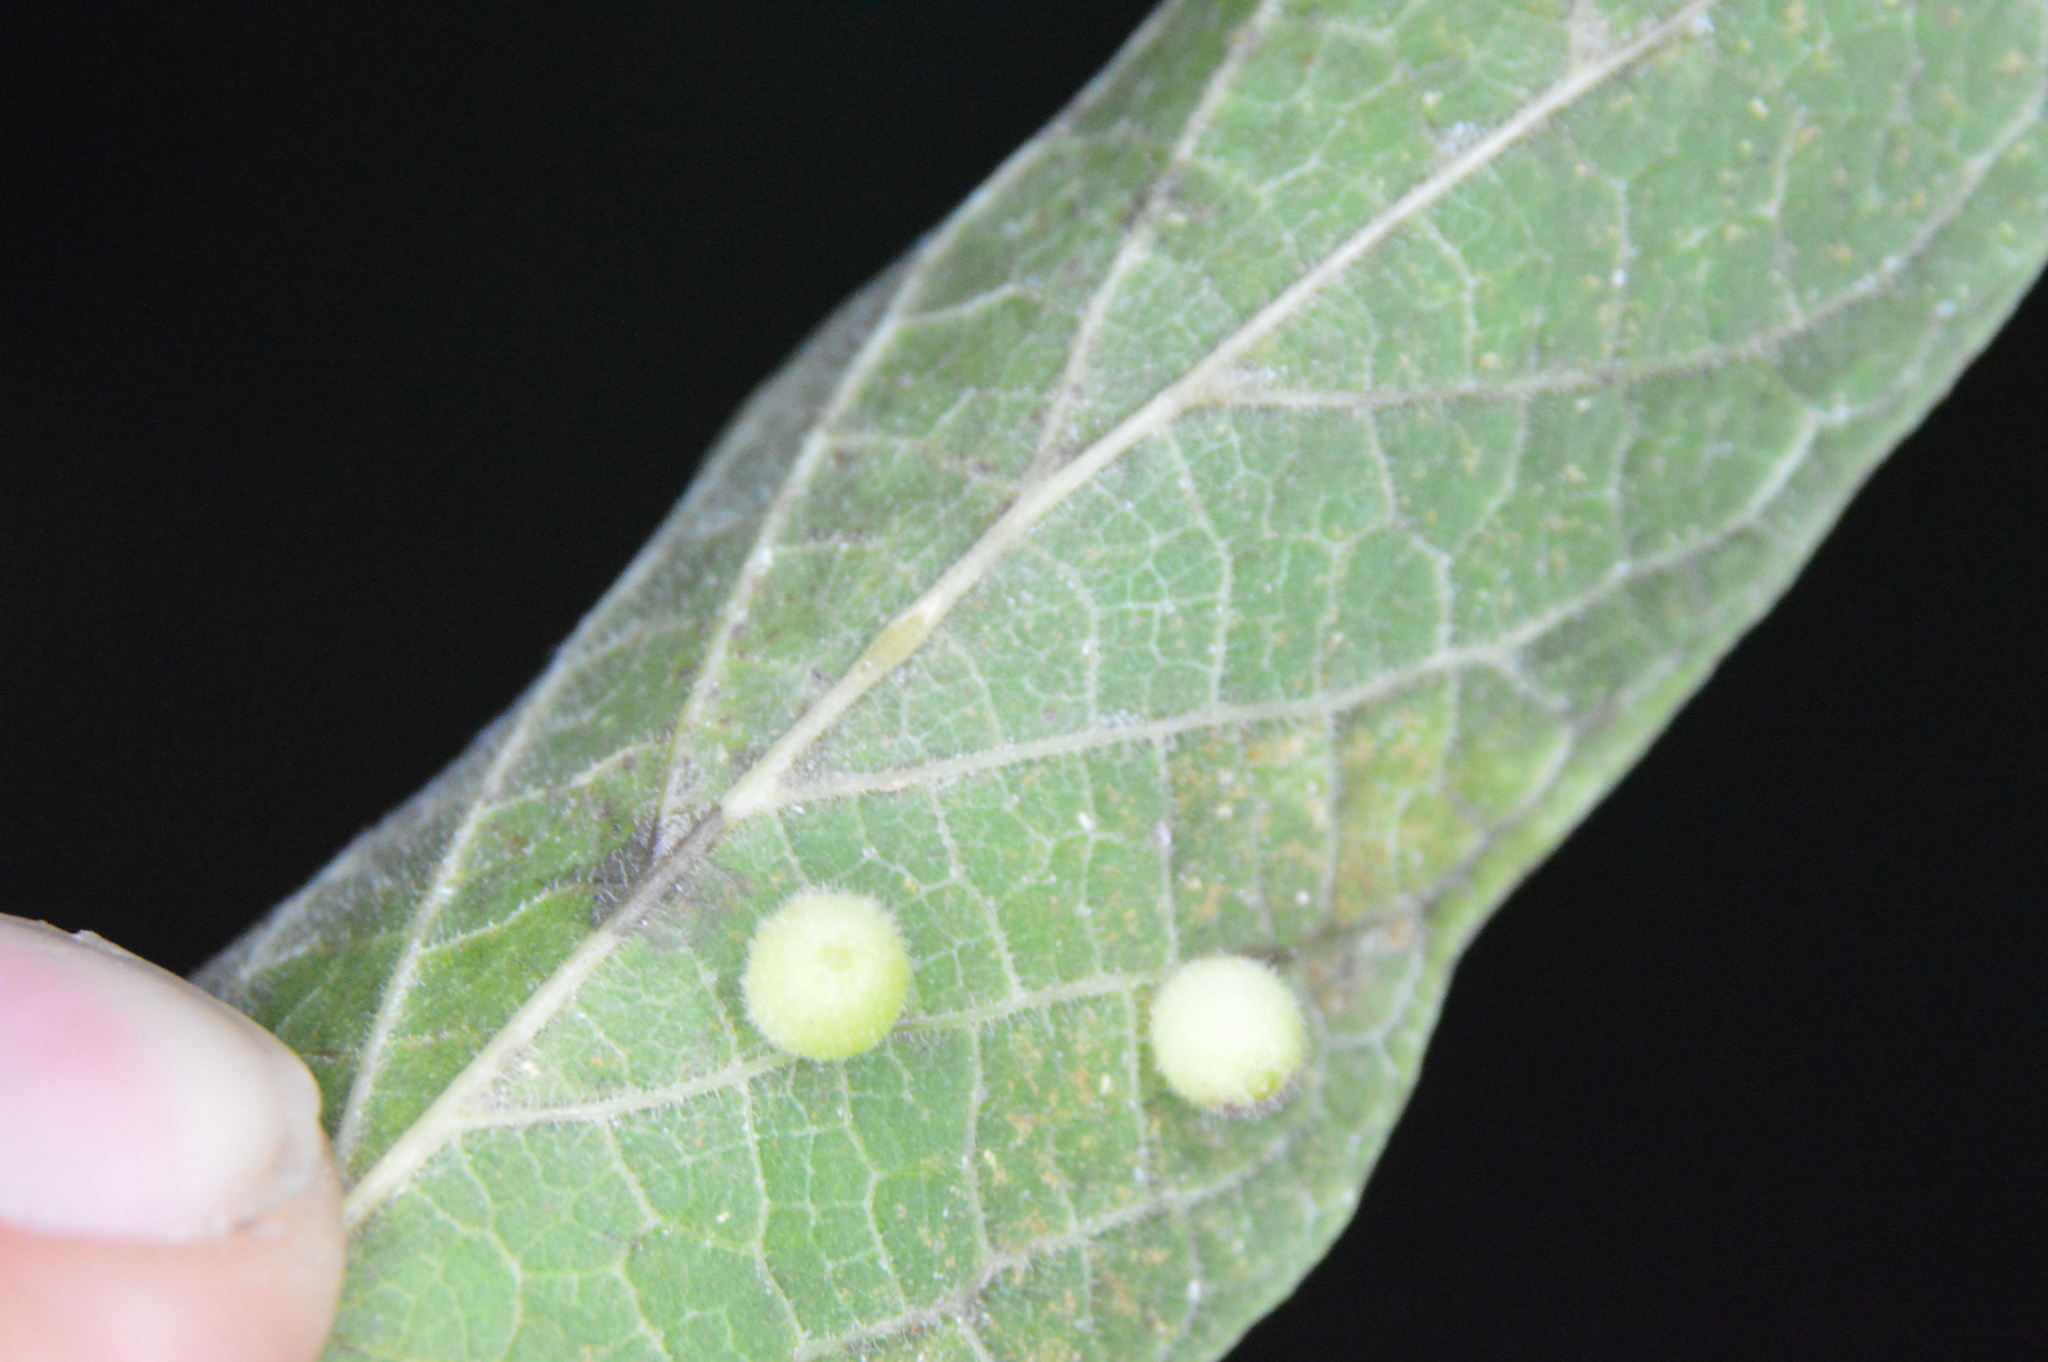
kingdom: Animalia
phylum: Arthropoda
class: Insecta
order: Diptera
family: Cecidomyiidae
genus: Celticecis
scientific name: Celticecis globosa
